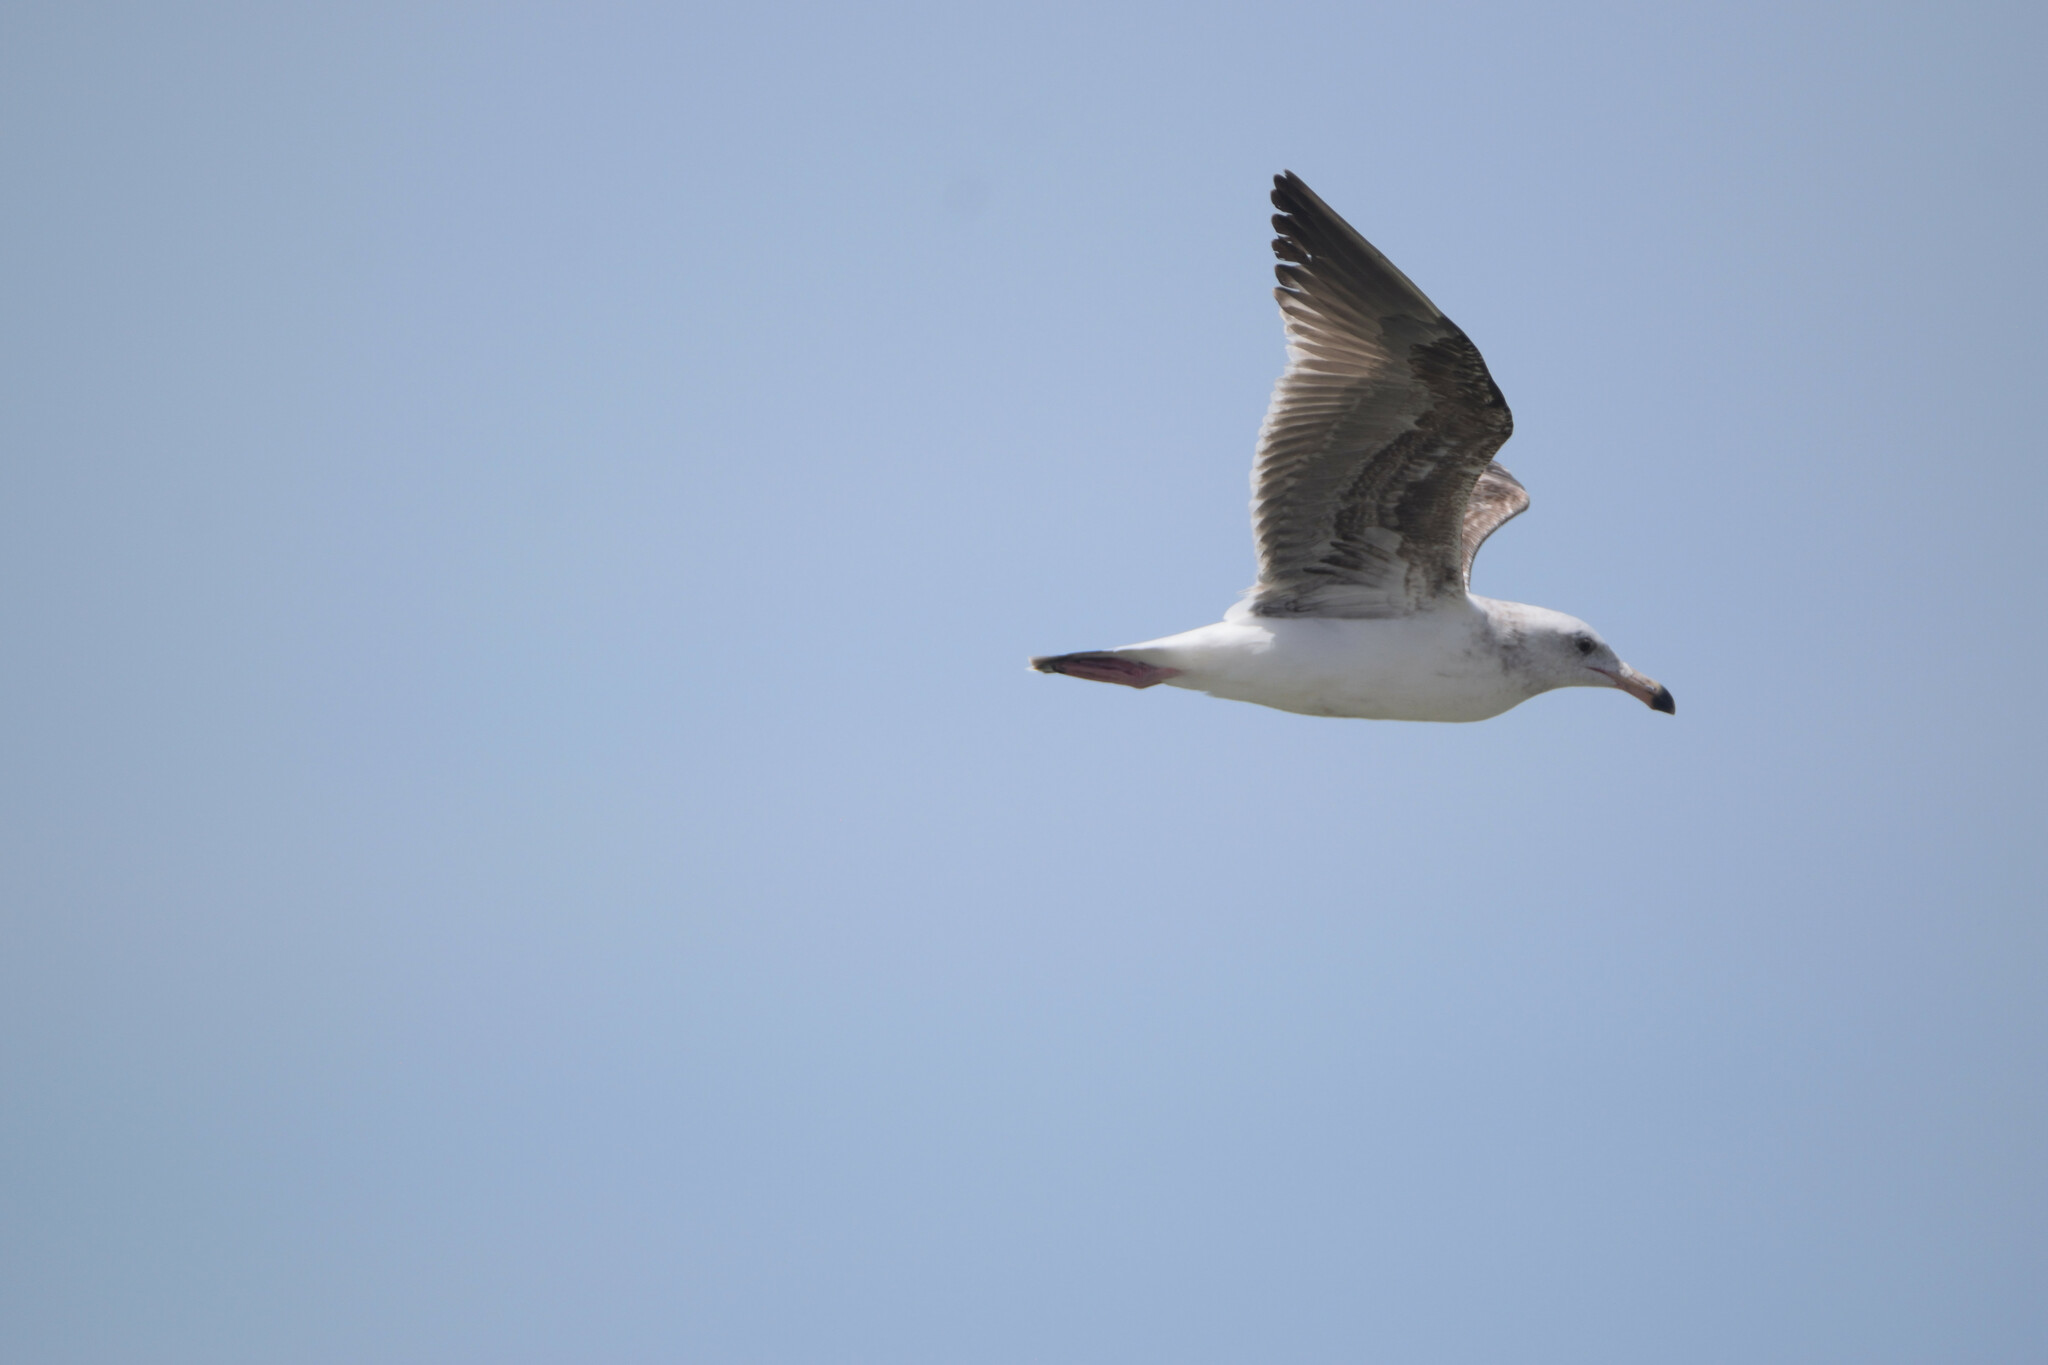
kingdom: Animalia
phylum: Chordata
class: Aves
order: Charadriiformes
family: Laridae
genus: Larus
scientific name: Larus occidentalis
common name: Western gull
